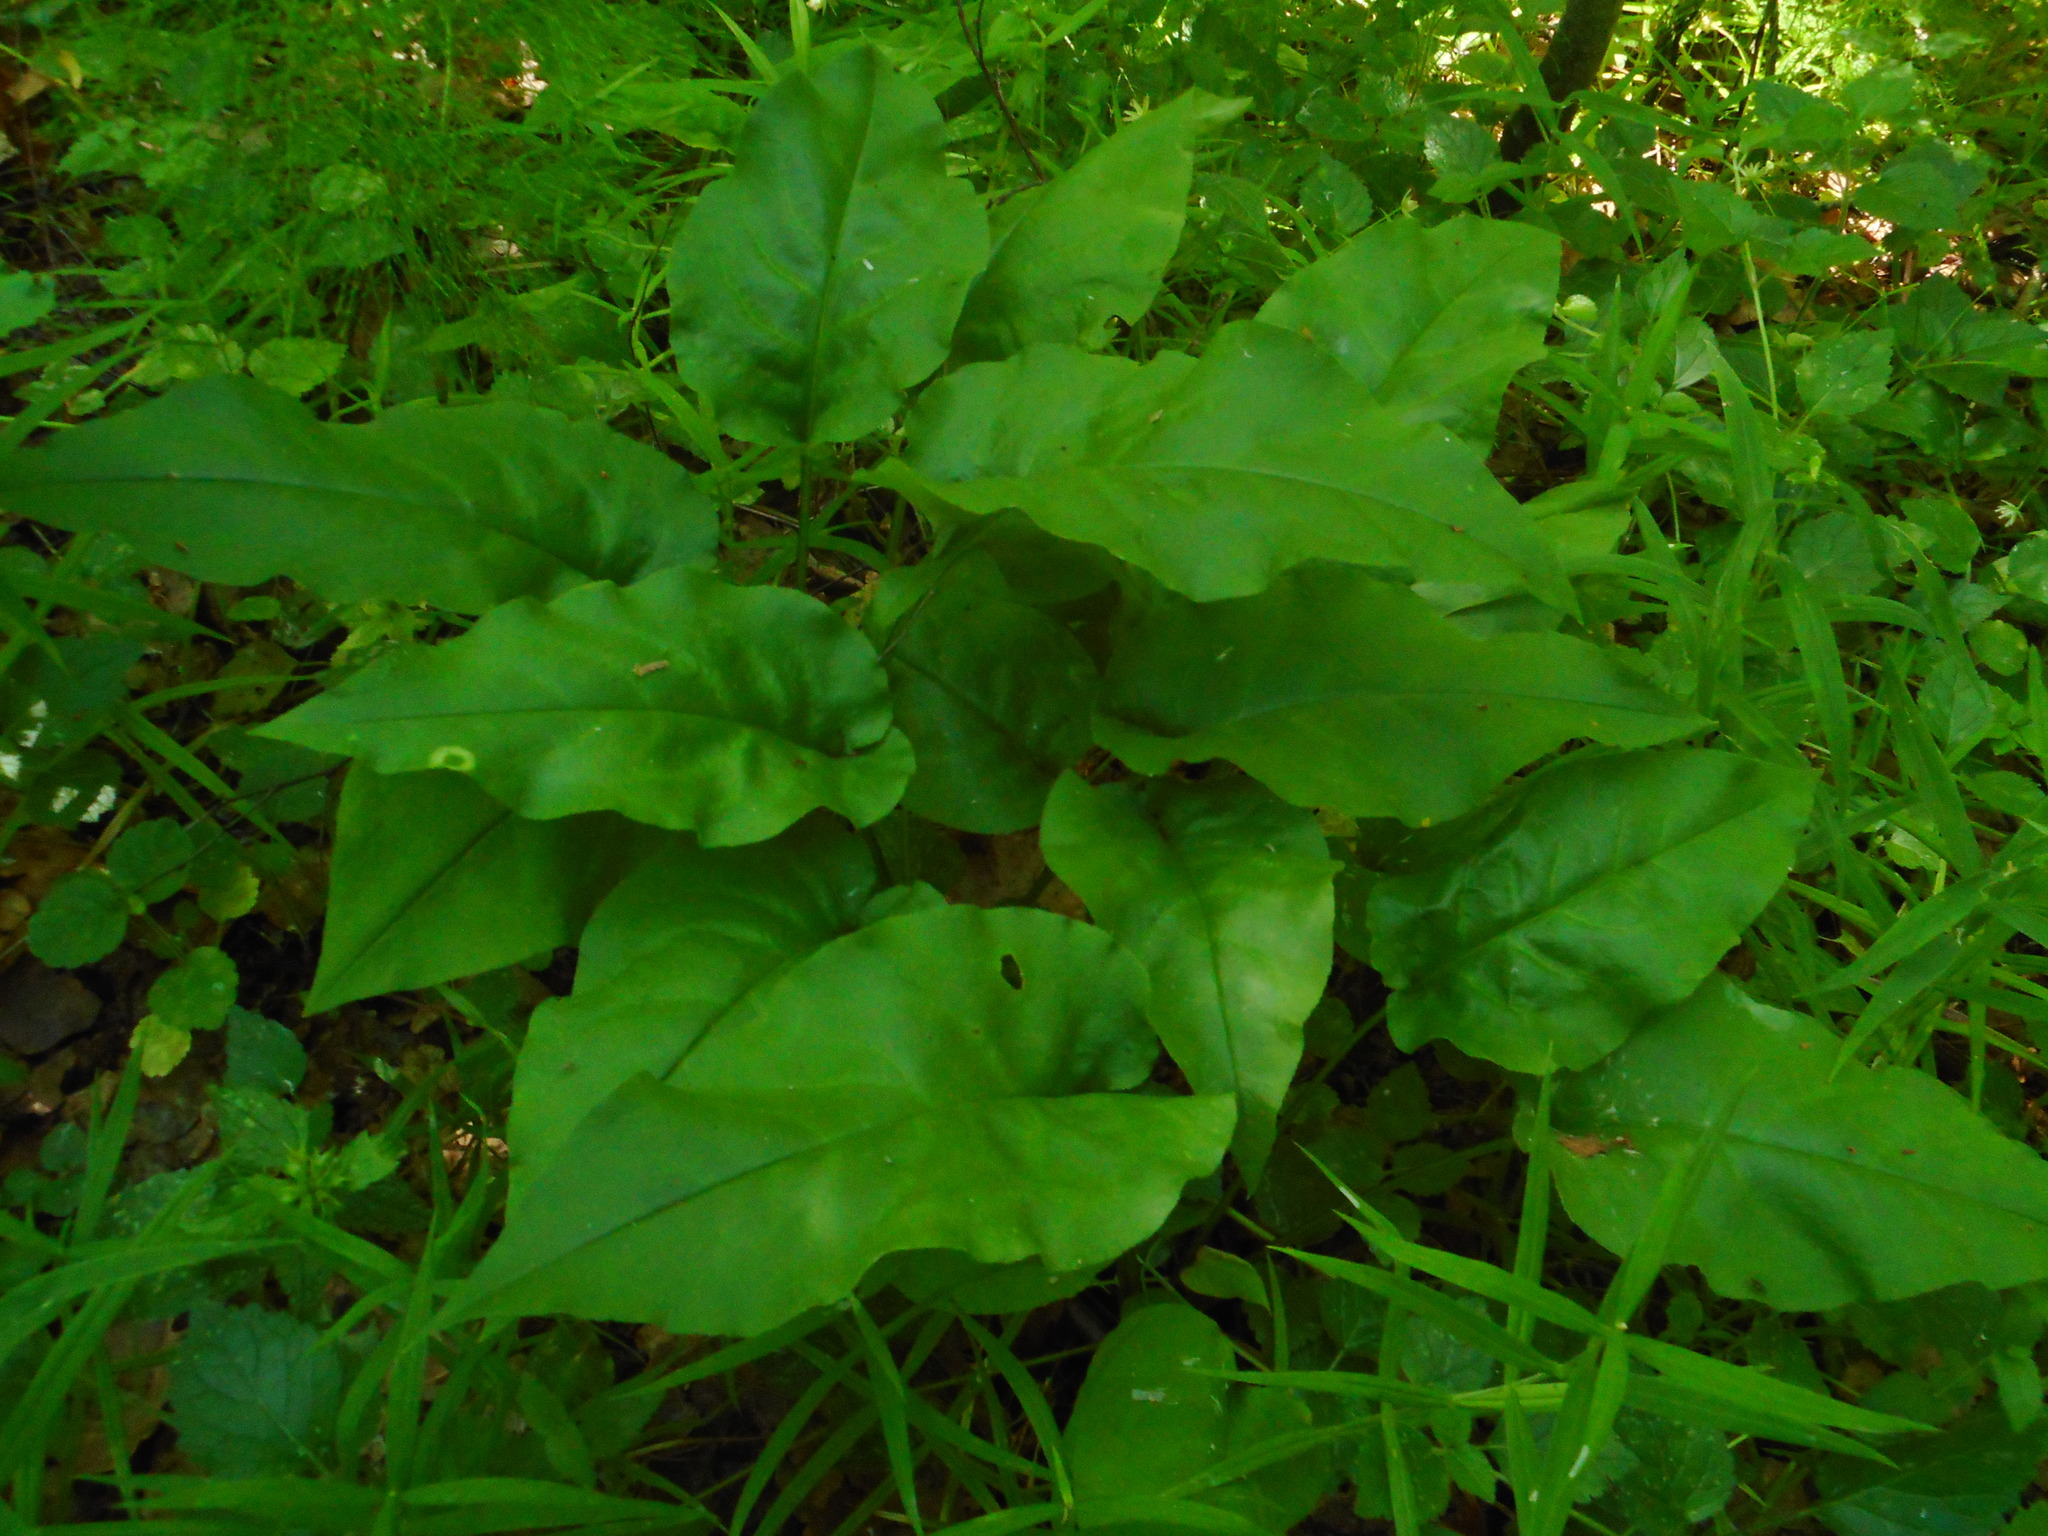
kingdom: Plantae
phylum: Tracheophyta
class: Magnoliopsida
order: Boraginales
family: Boraginaceae
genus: Pulmonaria
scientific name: Pulmonaria obscura
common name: Suffolk lungwort
